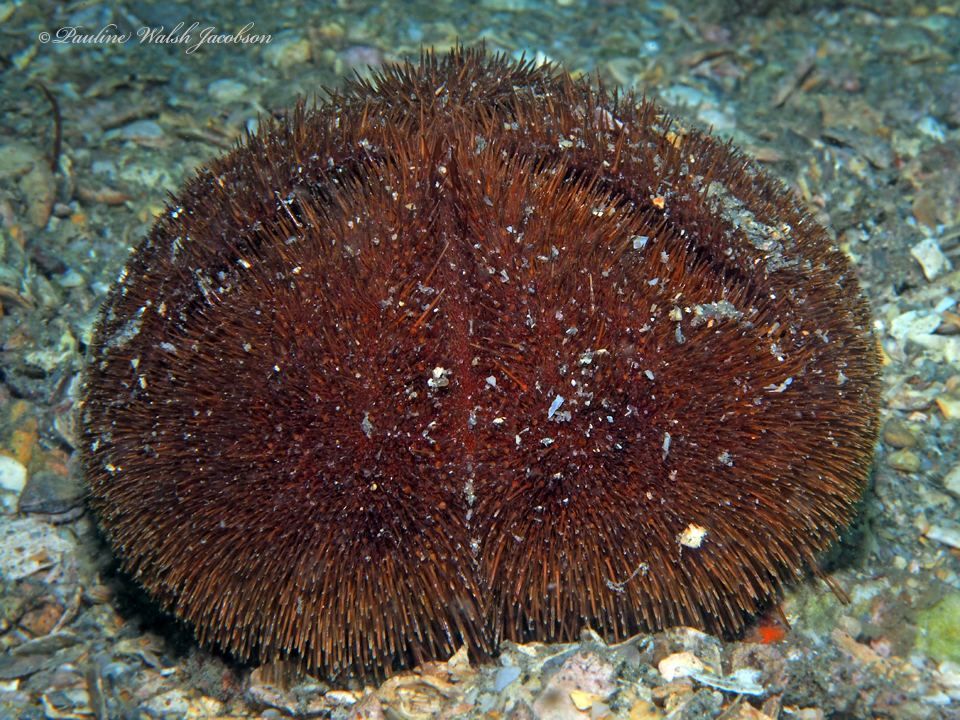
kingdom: Animalia
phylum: Echinodermata
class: Echinoidea
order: Spatangoida
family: Brissidae
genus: Meoma
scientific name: Meoma ventricosa
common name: Large heart urchin
